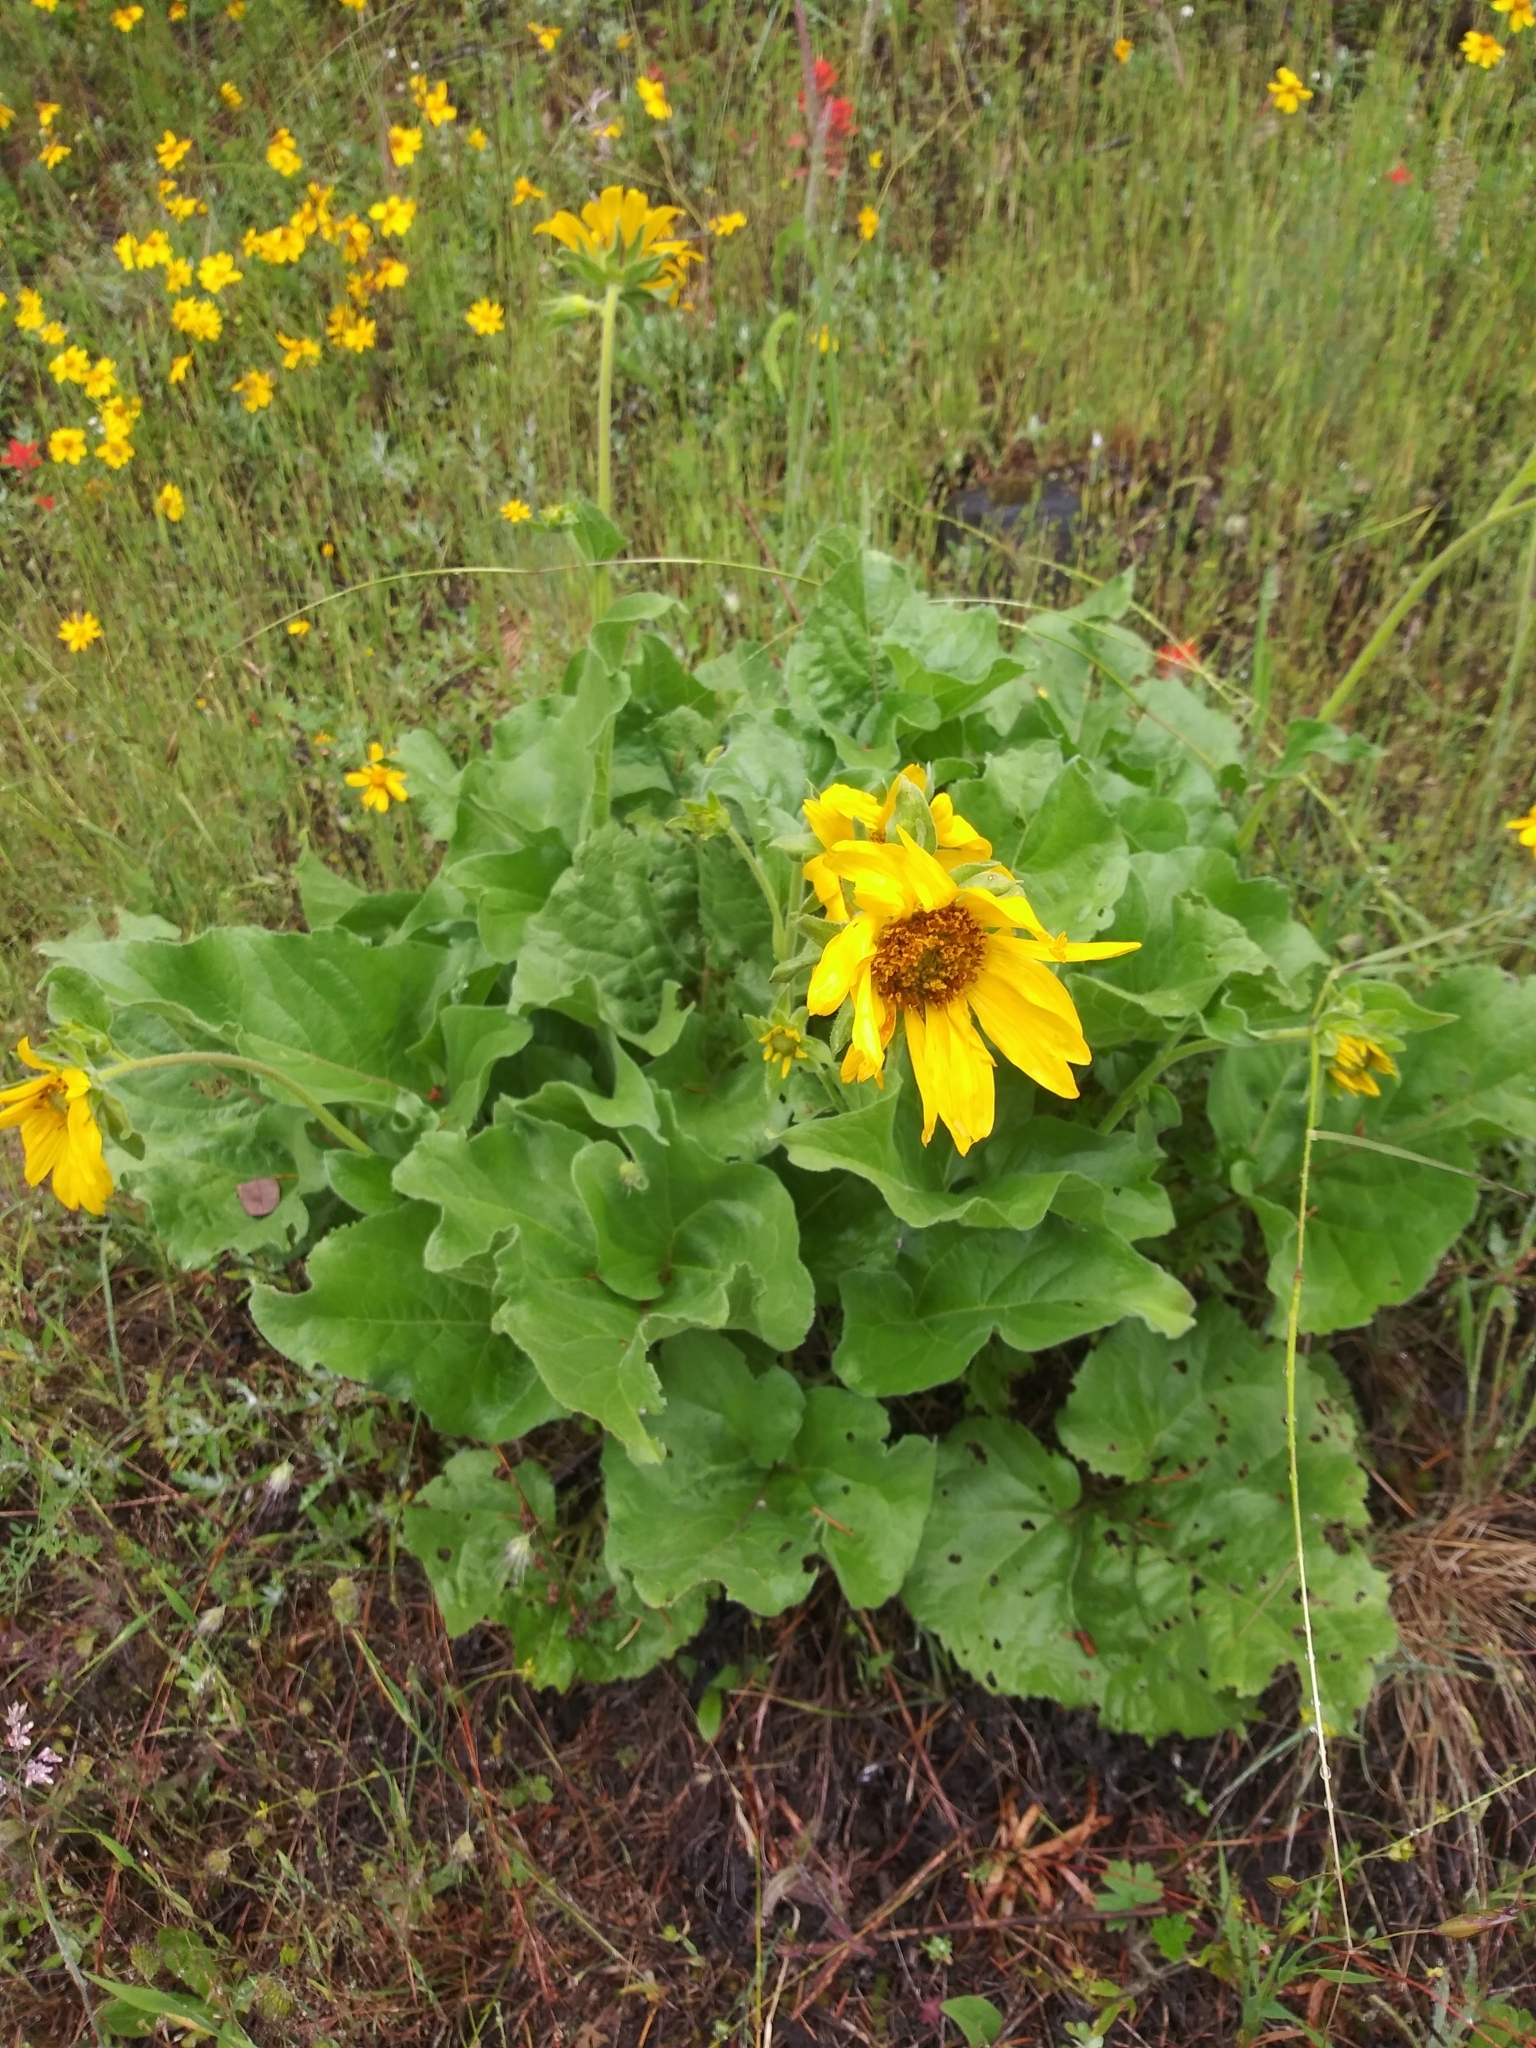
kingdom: Plantae
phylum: Tracheophyta
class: Magnoliopsida
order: Asterales
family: Asteraceae
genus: Balsamorhiza
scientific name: Balsamorhiza deltoidea
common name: Deltoid balsamroot
